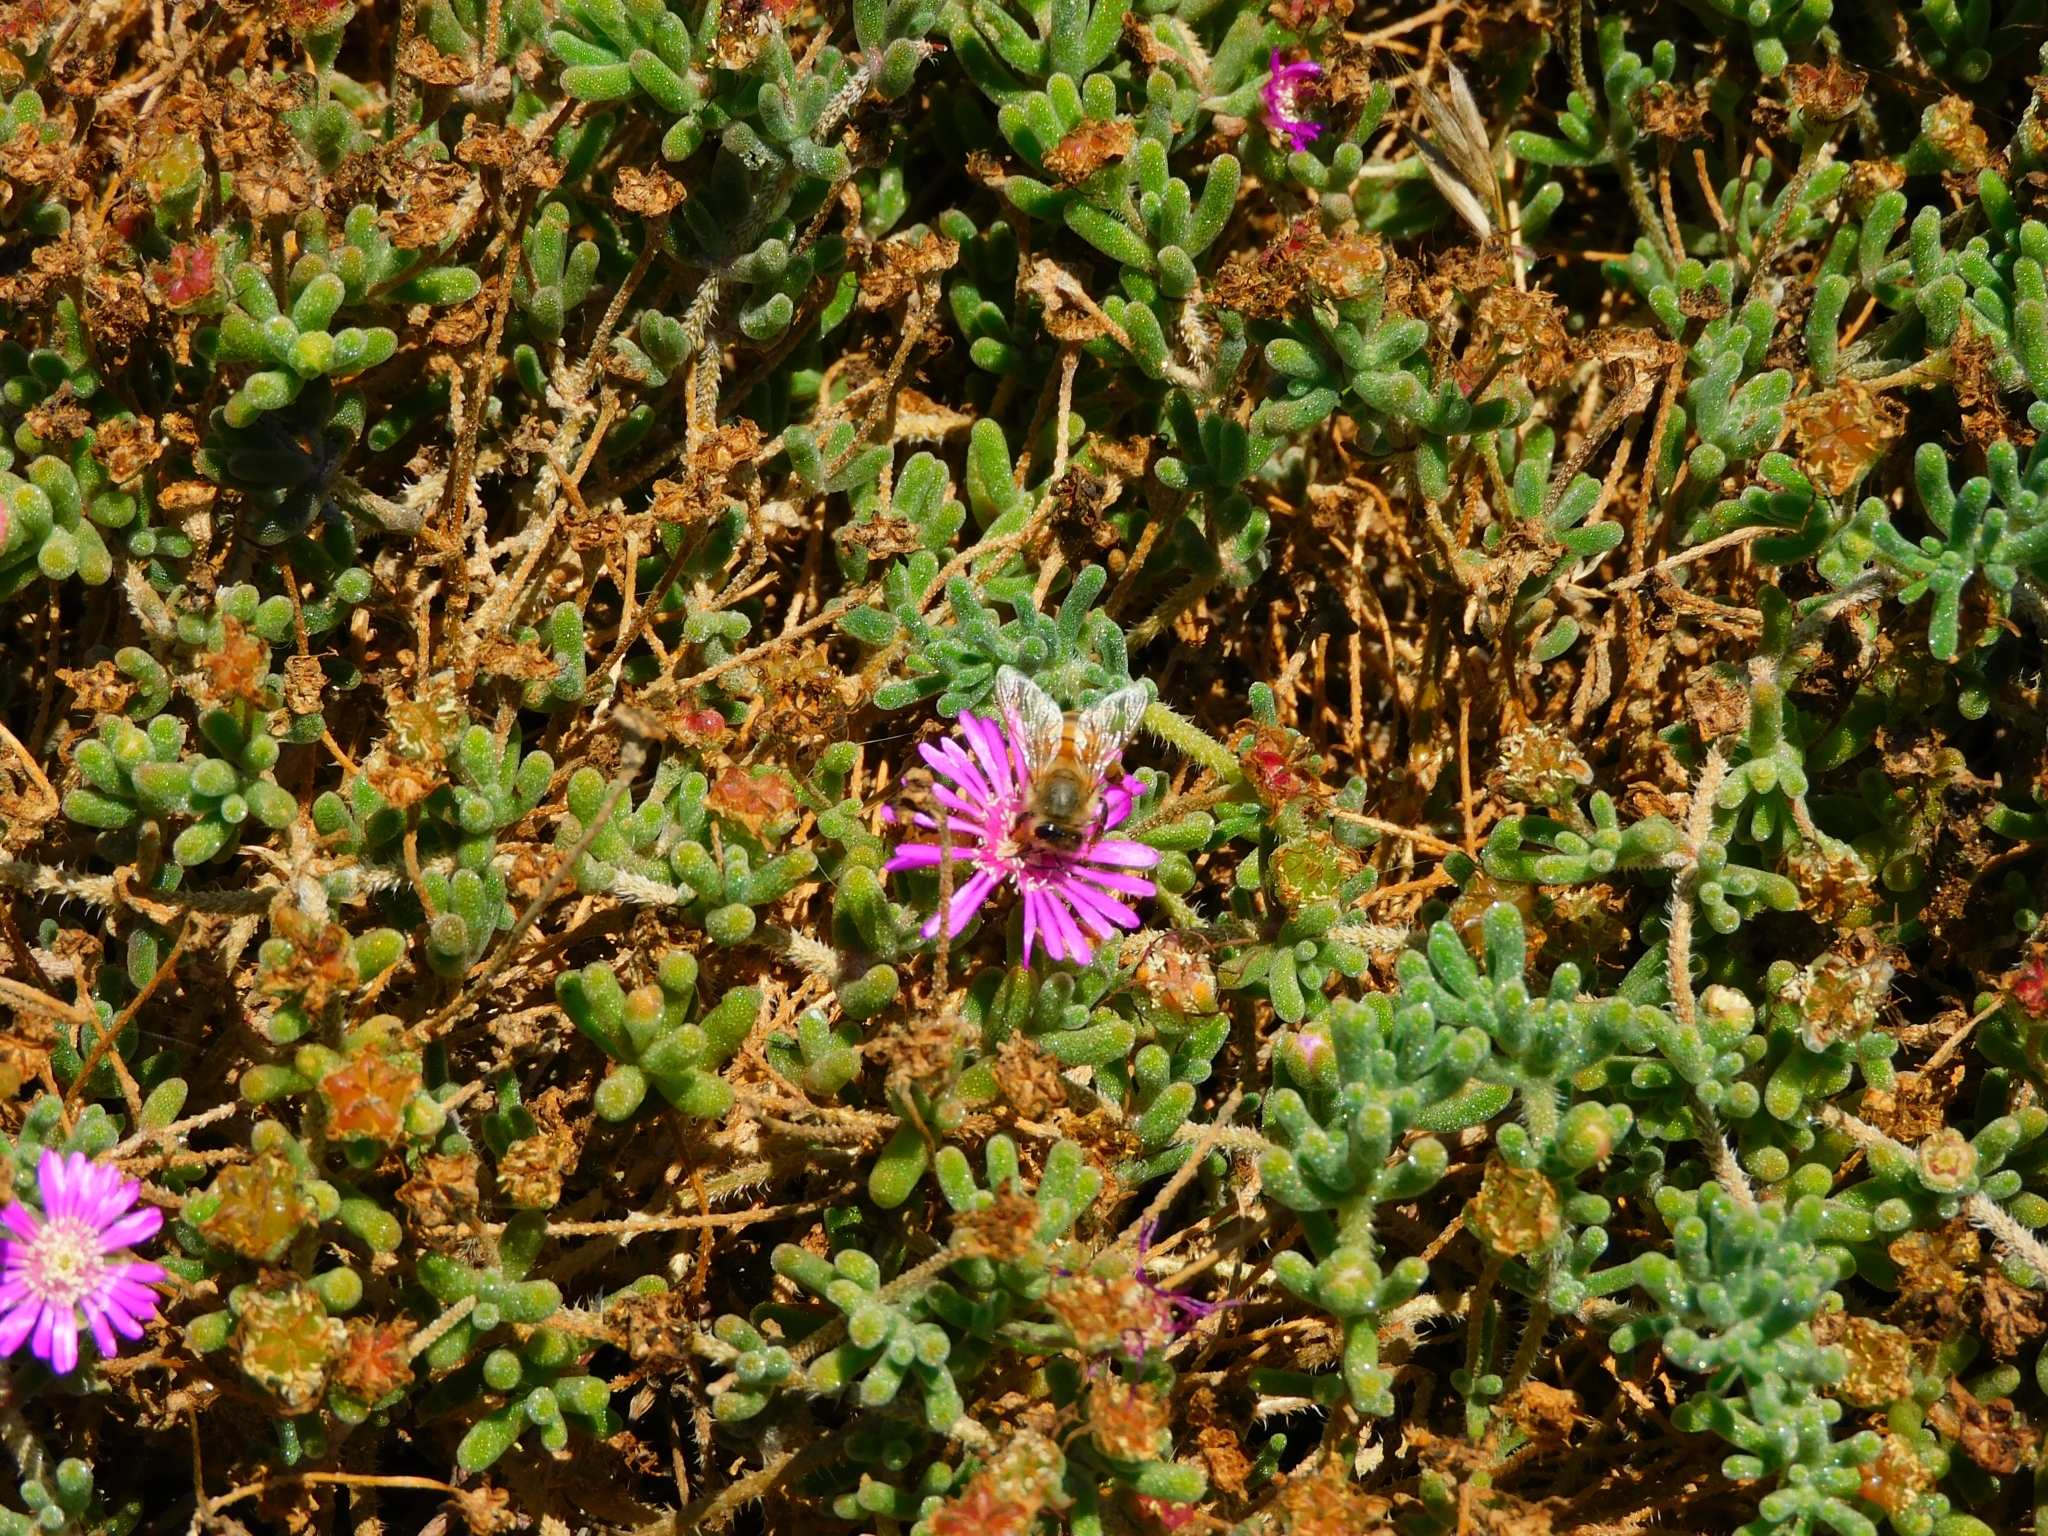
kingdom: Animalia
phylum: Arthropoda
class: Insecta
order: Hymenoptera
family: Apidae
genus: Apis
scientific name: Apis mellifera
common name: Honey bee
